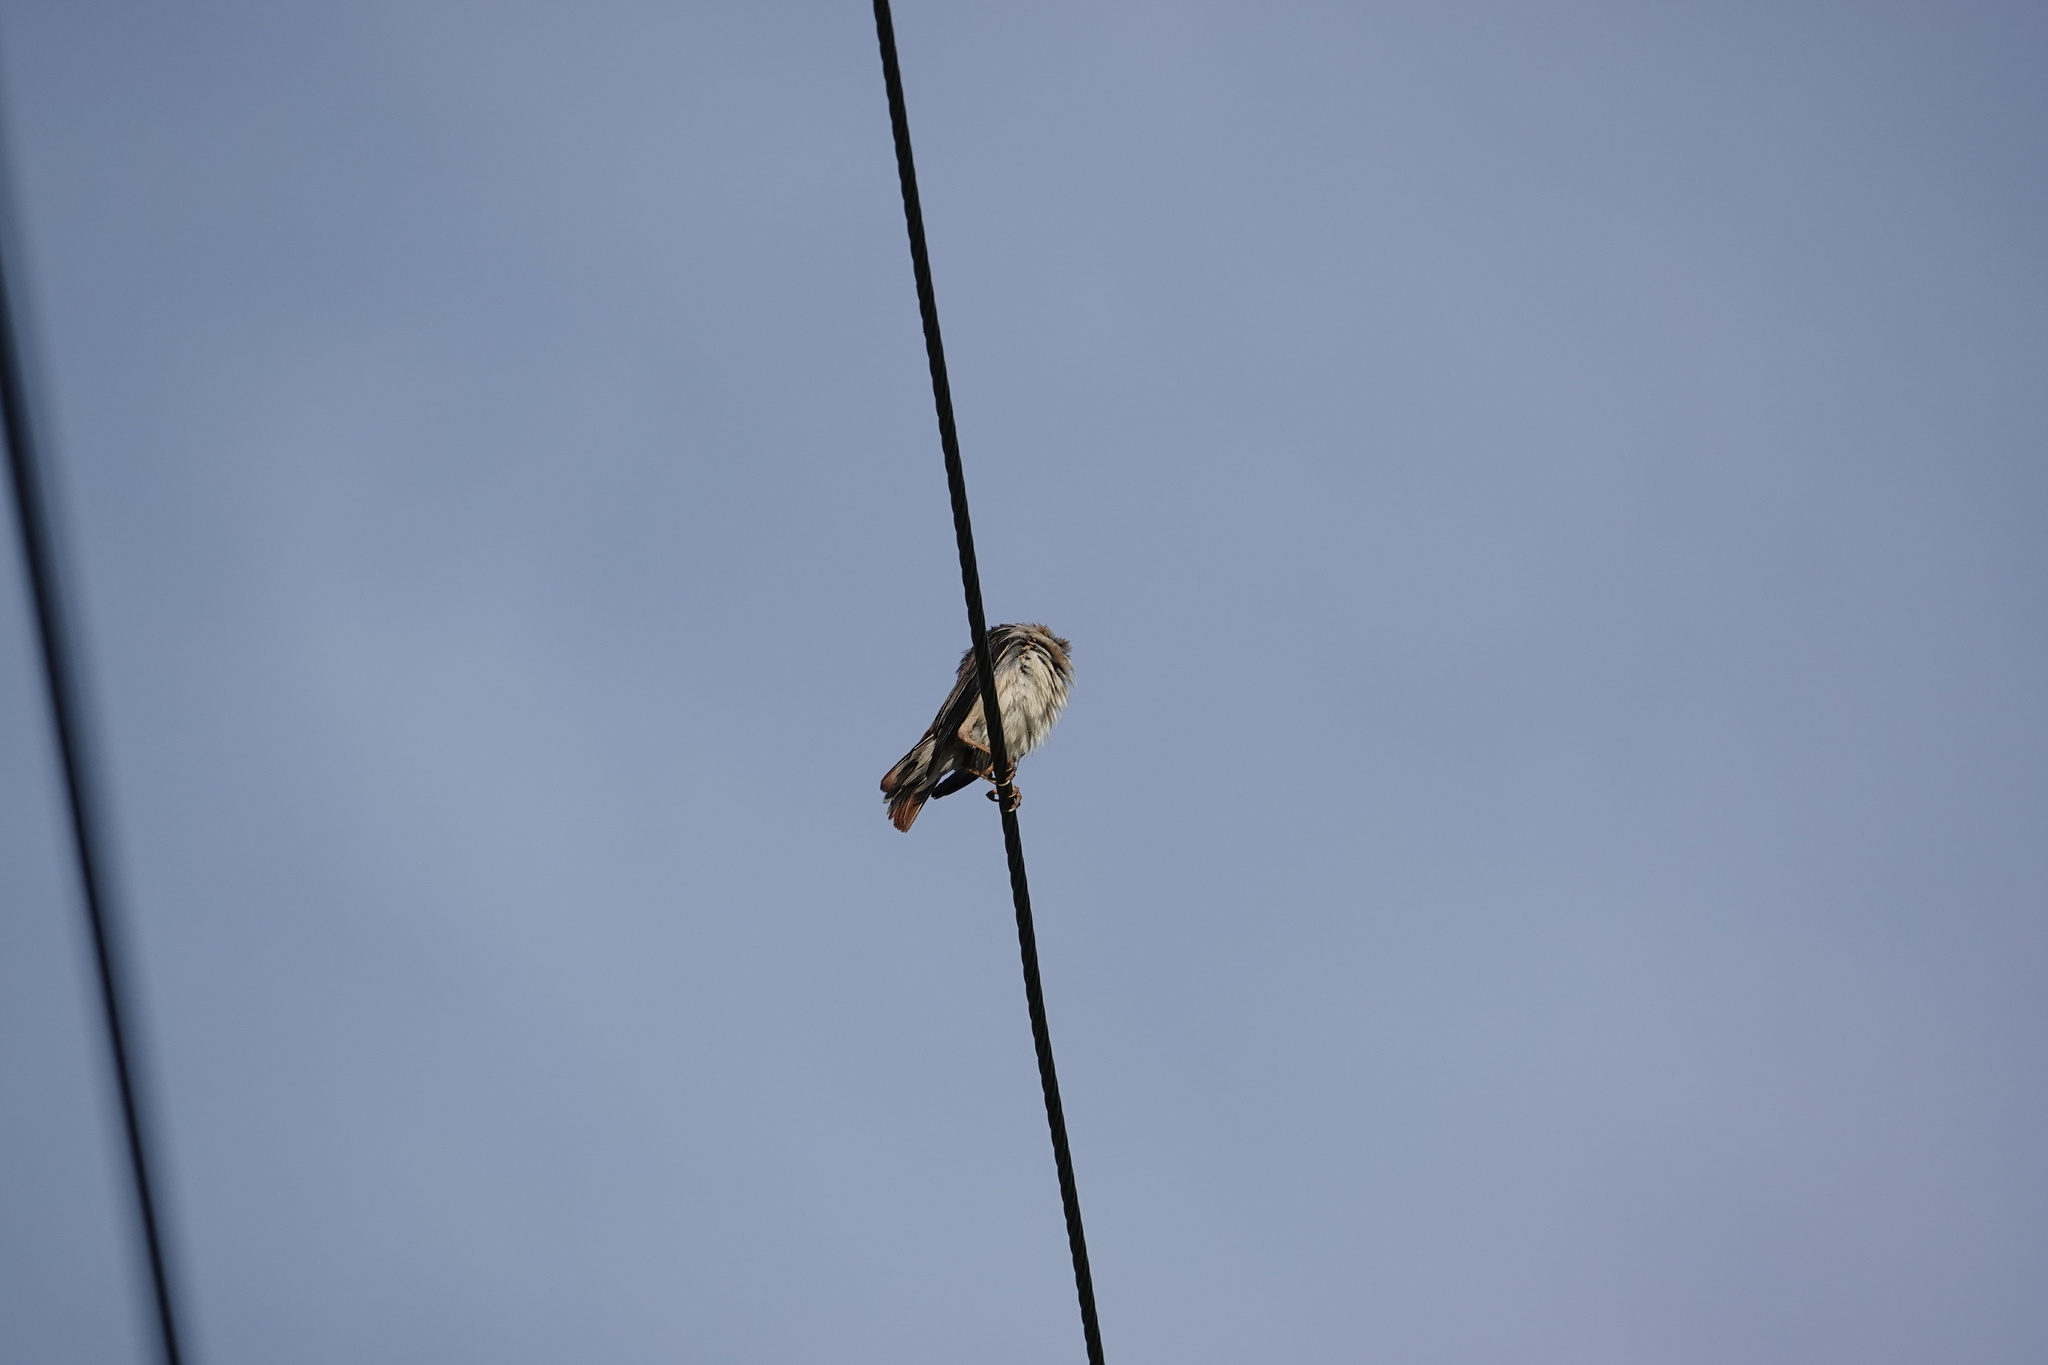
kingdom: Animalia
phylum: Chordata
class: Aves
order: Passeriformes
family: Sturnidae
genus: Sturnia
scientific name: Sturnia malabarica
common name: Chestnut-tailed starling
